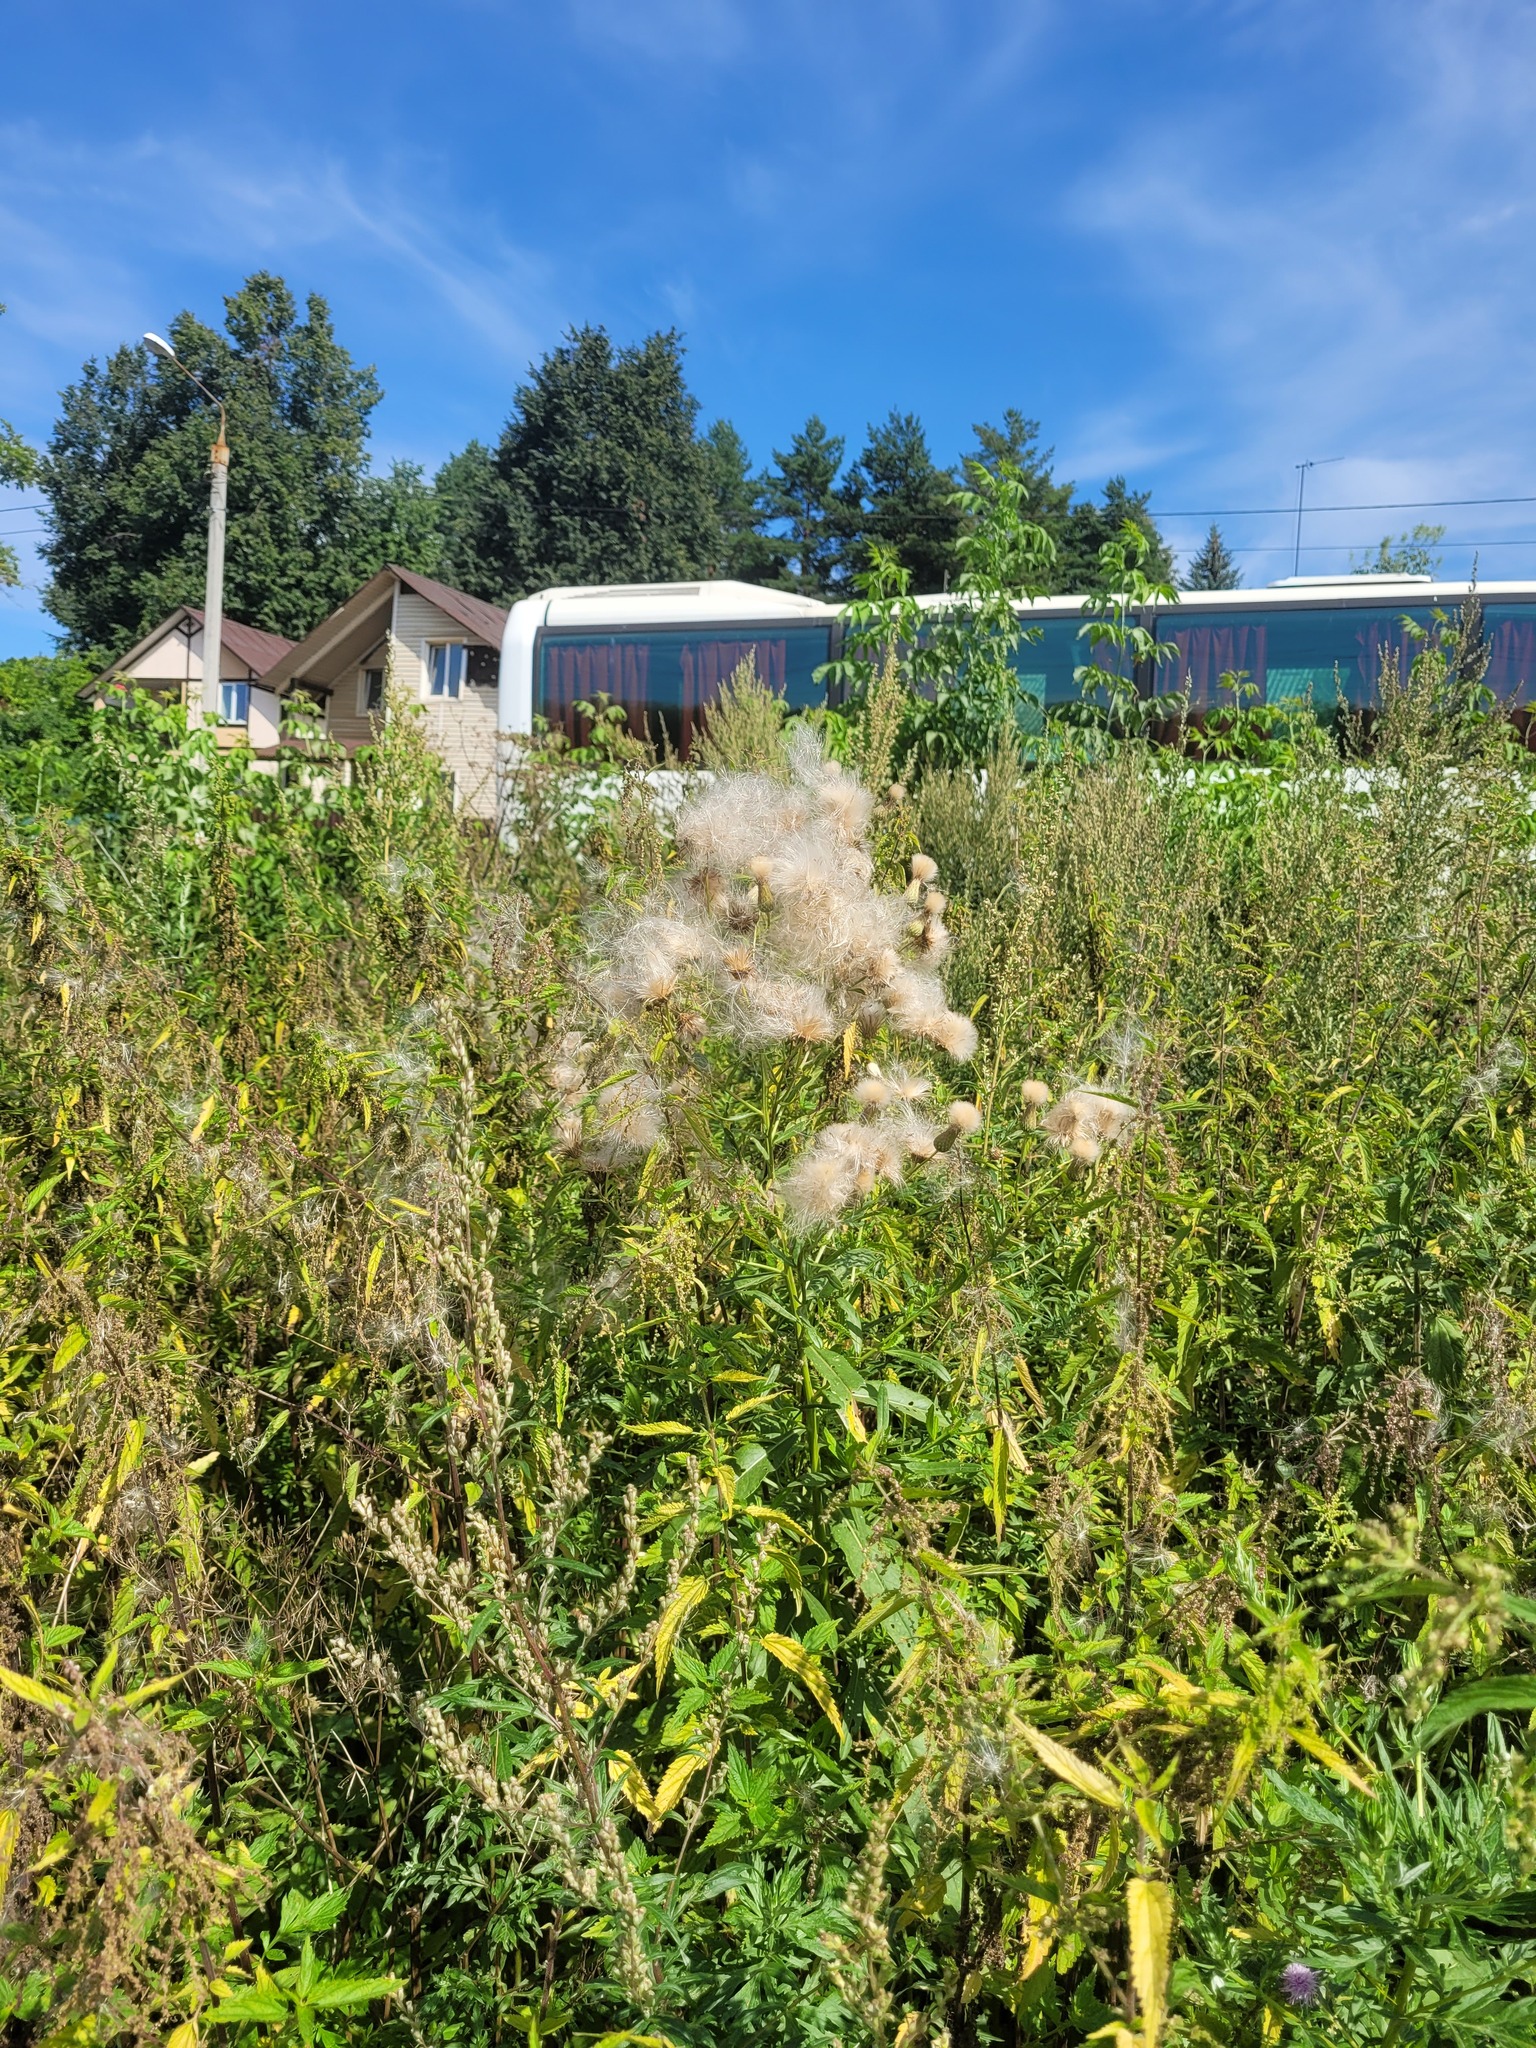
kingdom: Plantae
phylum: Tracheophyta
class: Magnoliopsida
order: Asterales
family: Asteraceae
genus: Cirsium
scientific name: Cirsium arvense
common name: Creeping thistle
